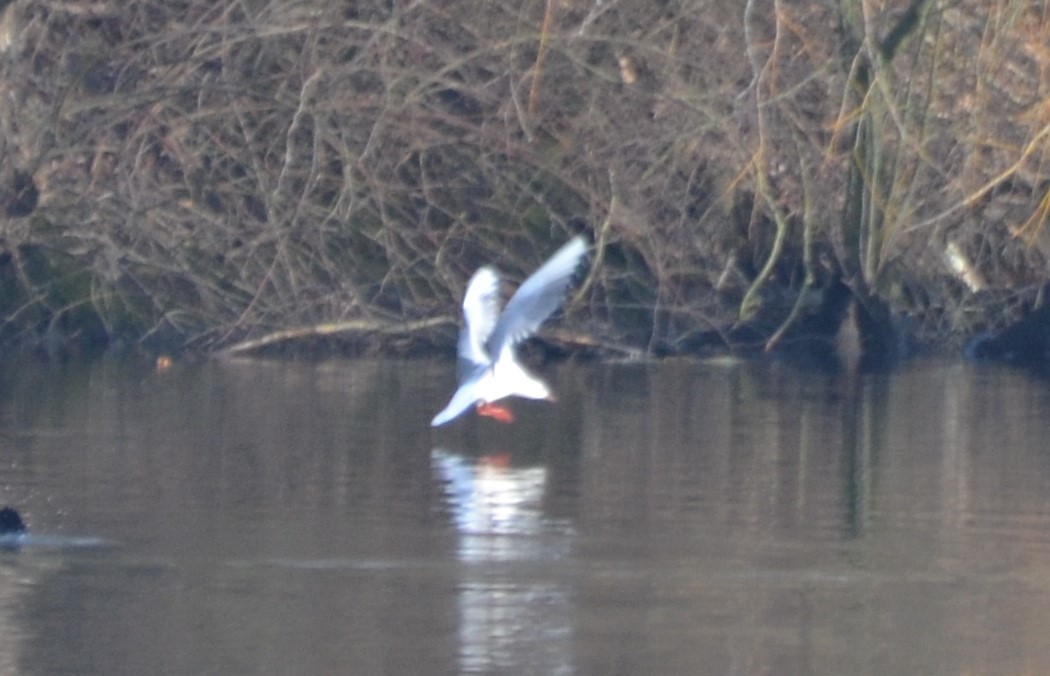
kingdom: Animalia
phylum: Chordata
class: Aves
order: Charadriiformes
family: Laridae
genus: Chroicocephalus
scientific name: Chroicocephalus ridibundus
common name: Black-headed gull
